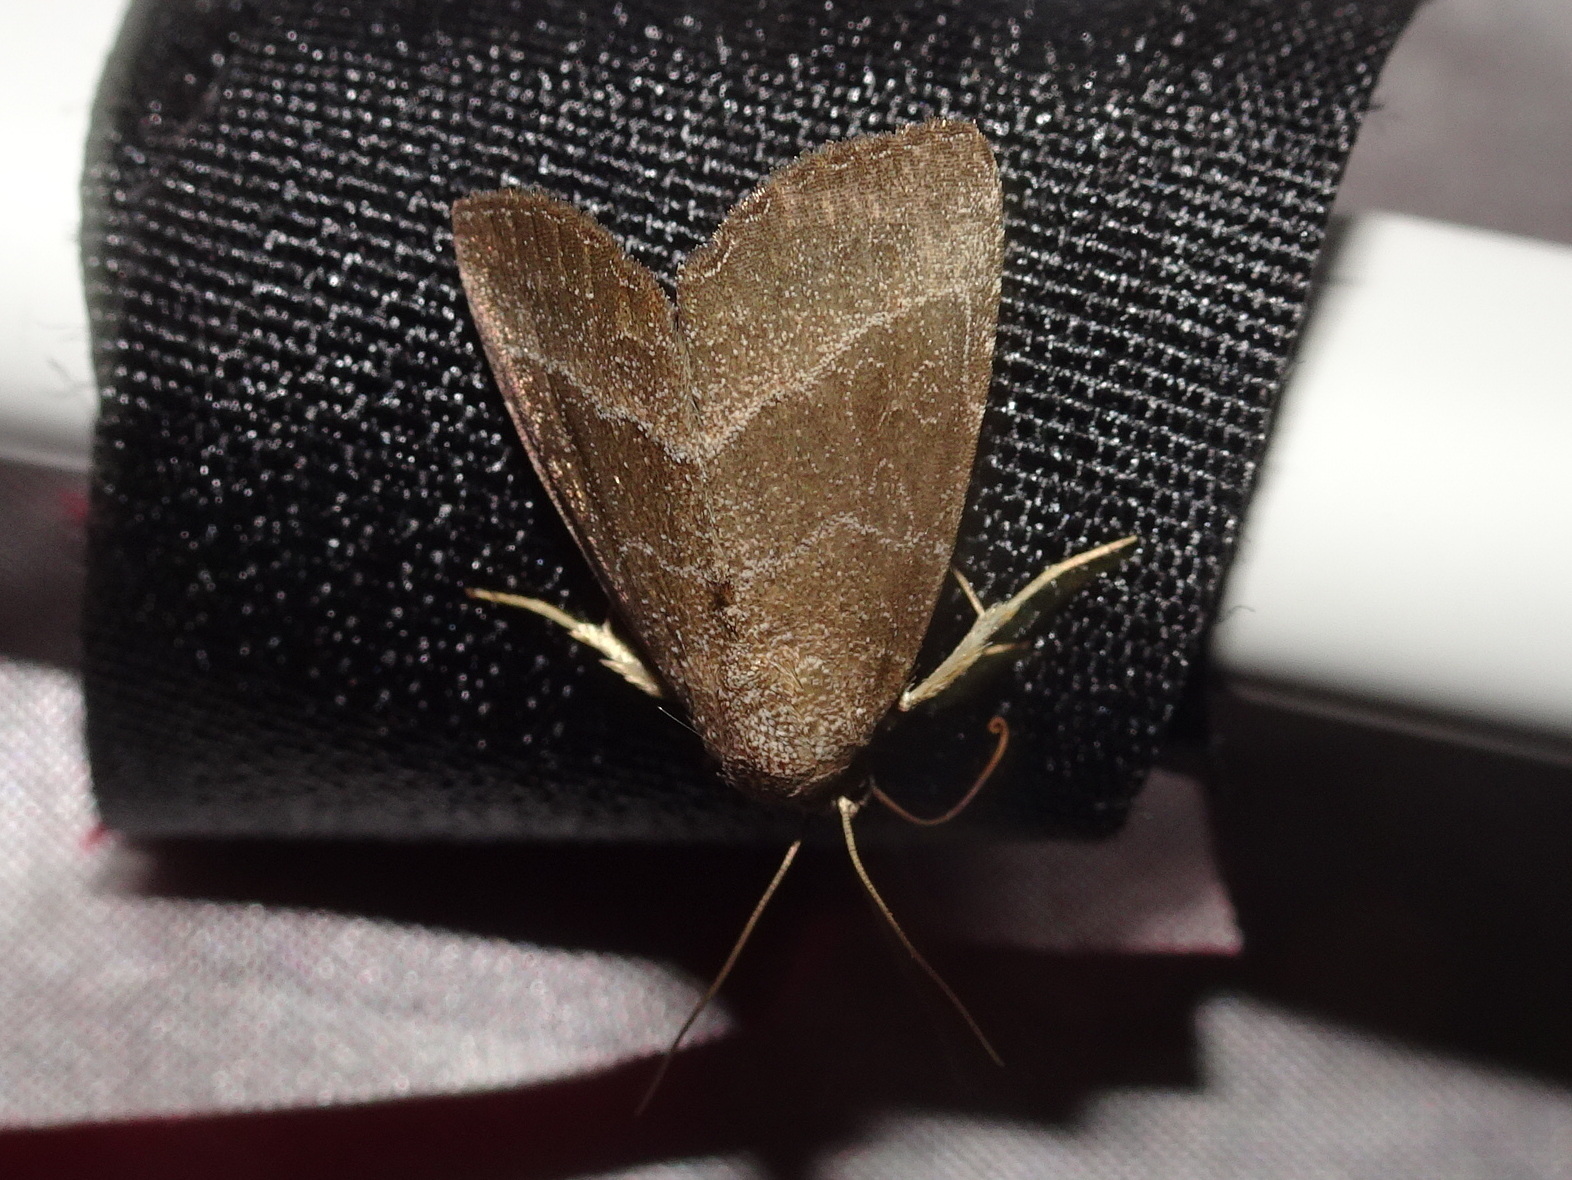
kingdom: Animalia
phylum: Arthropoda
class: Insecta
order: Lepidoptera
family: Noctuidae
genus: Ogdoconta
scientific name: Ogdoconta cinereola
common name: Common pinkband
